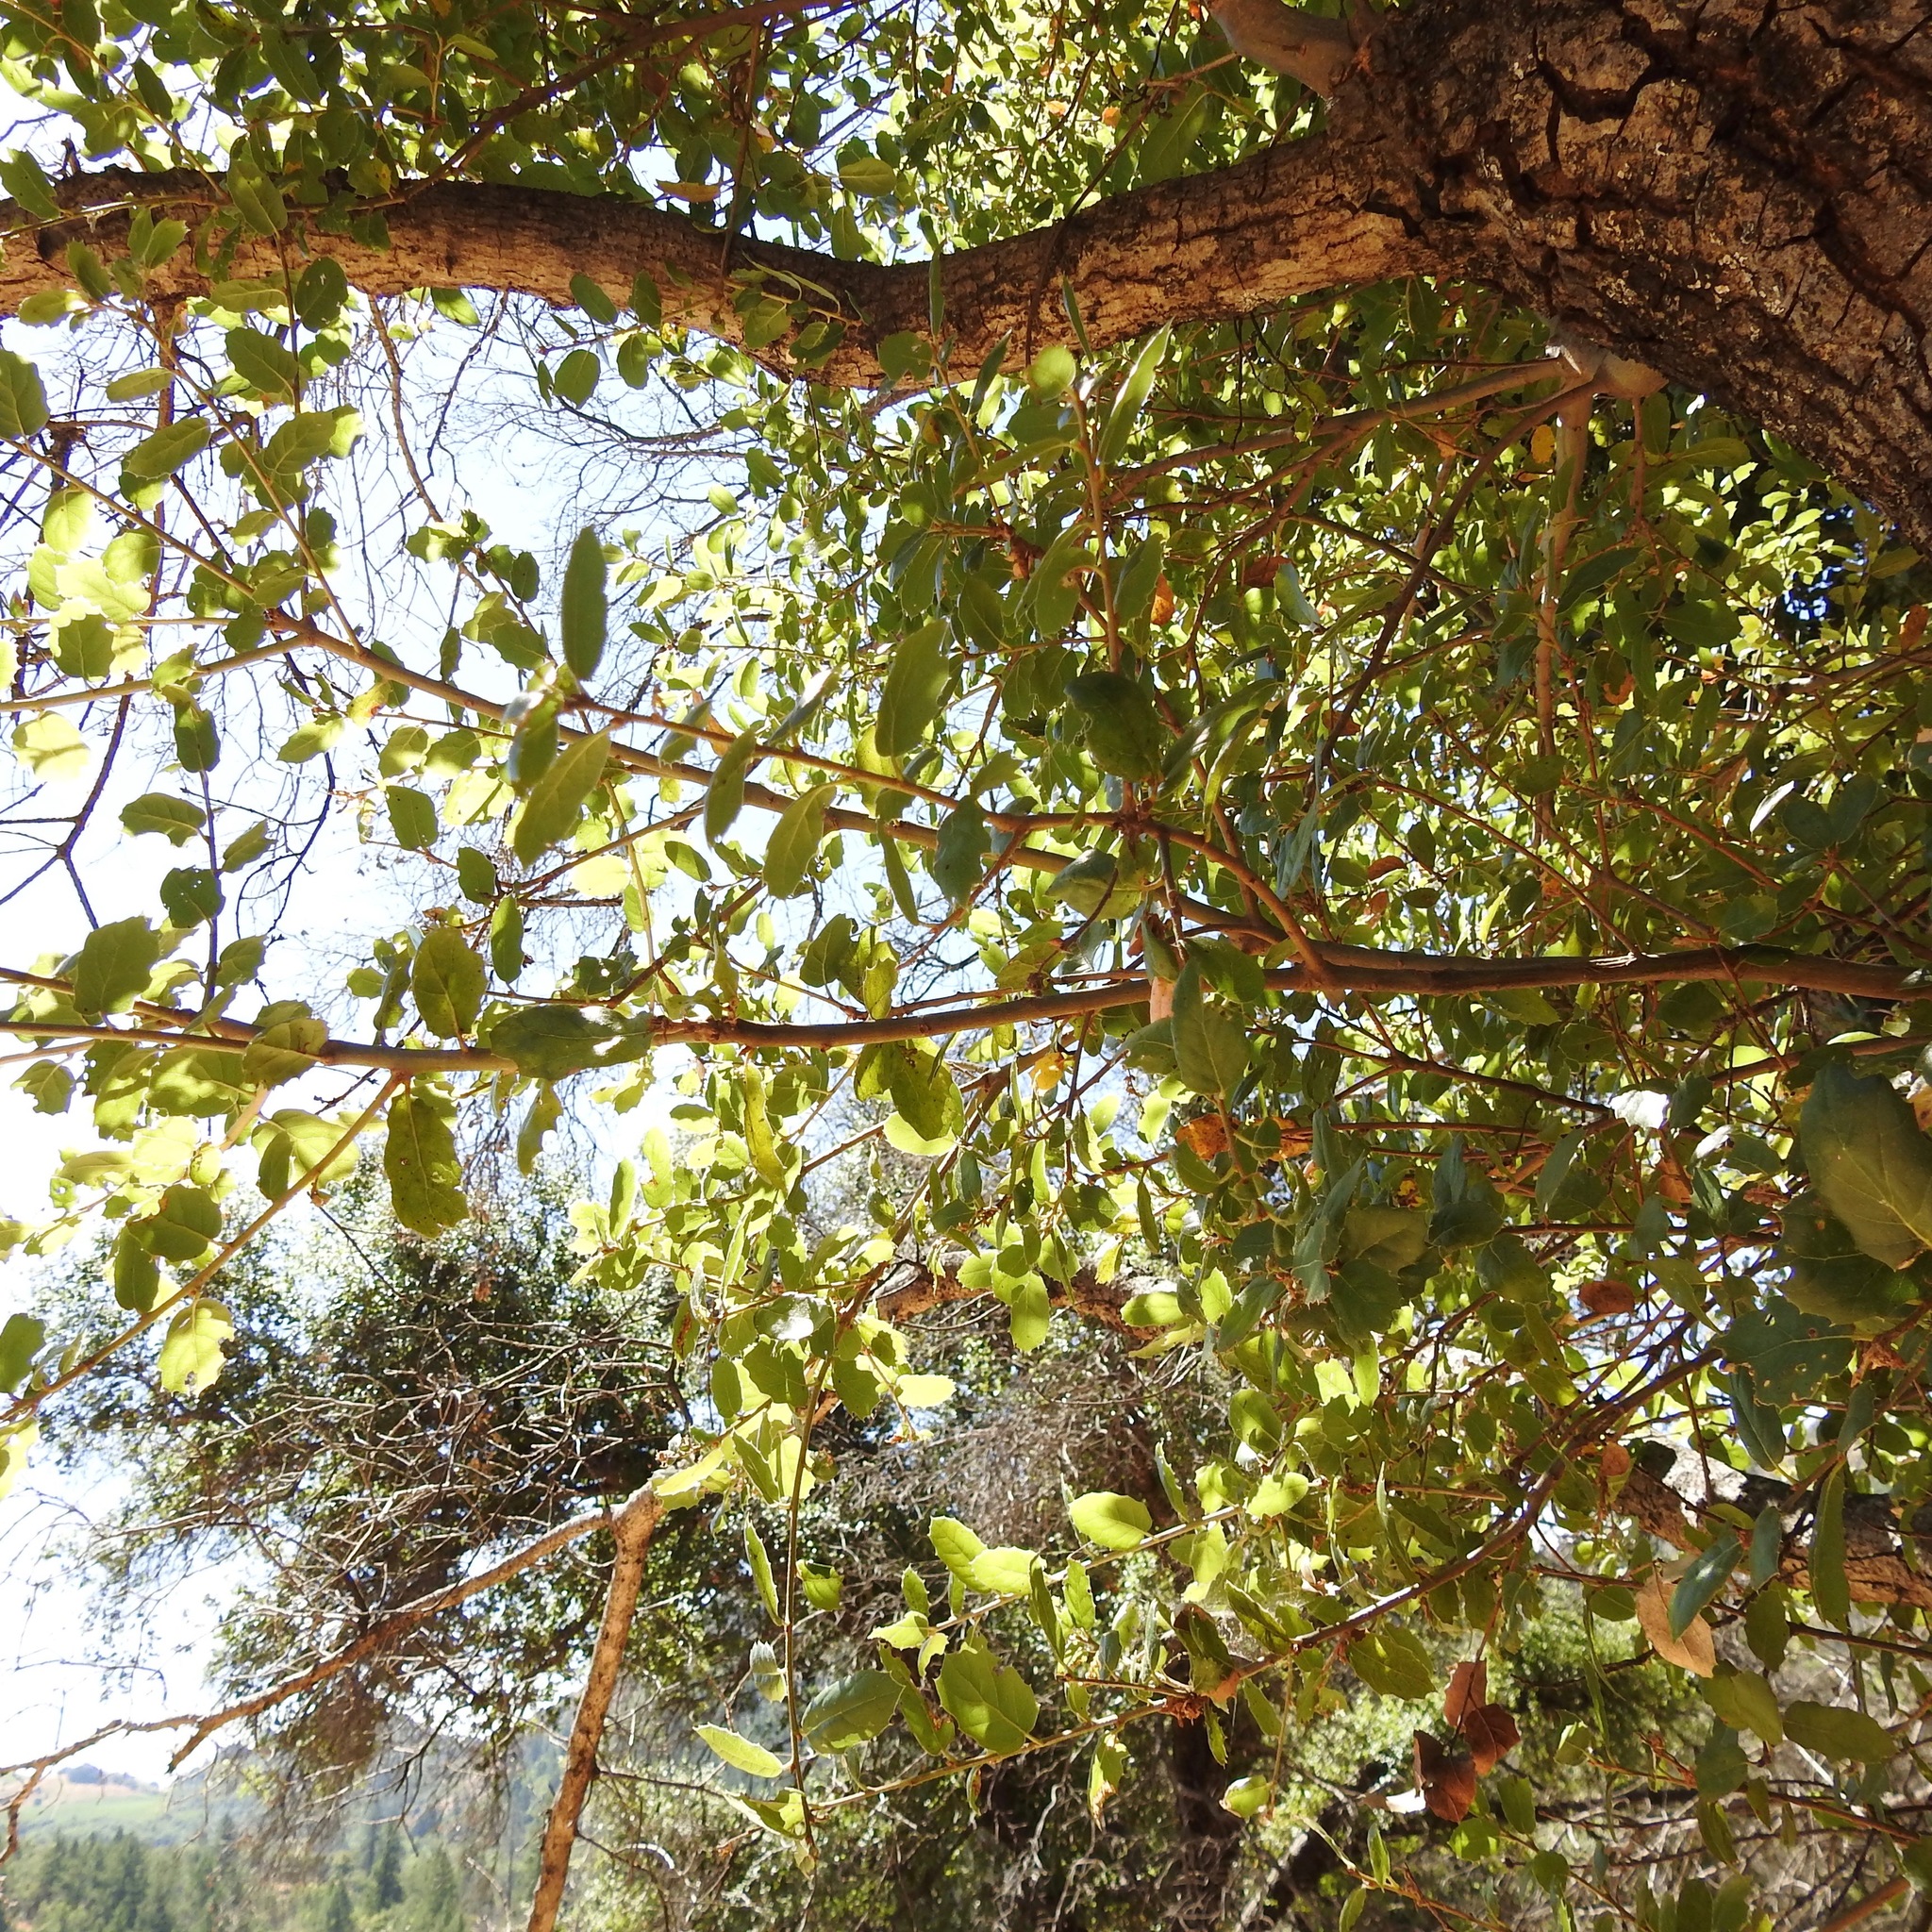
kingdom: Plantae
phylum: Tracheophyta
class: Magnoliopsida
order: Fagales
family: Fagaceae
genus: Quercus
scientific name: Quercus agrifolia
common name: California live oak
